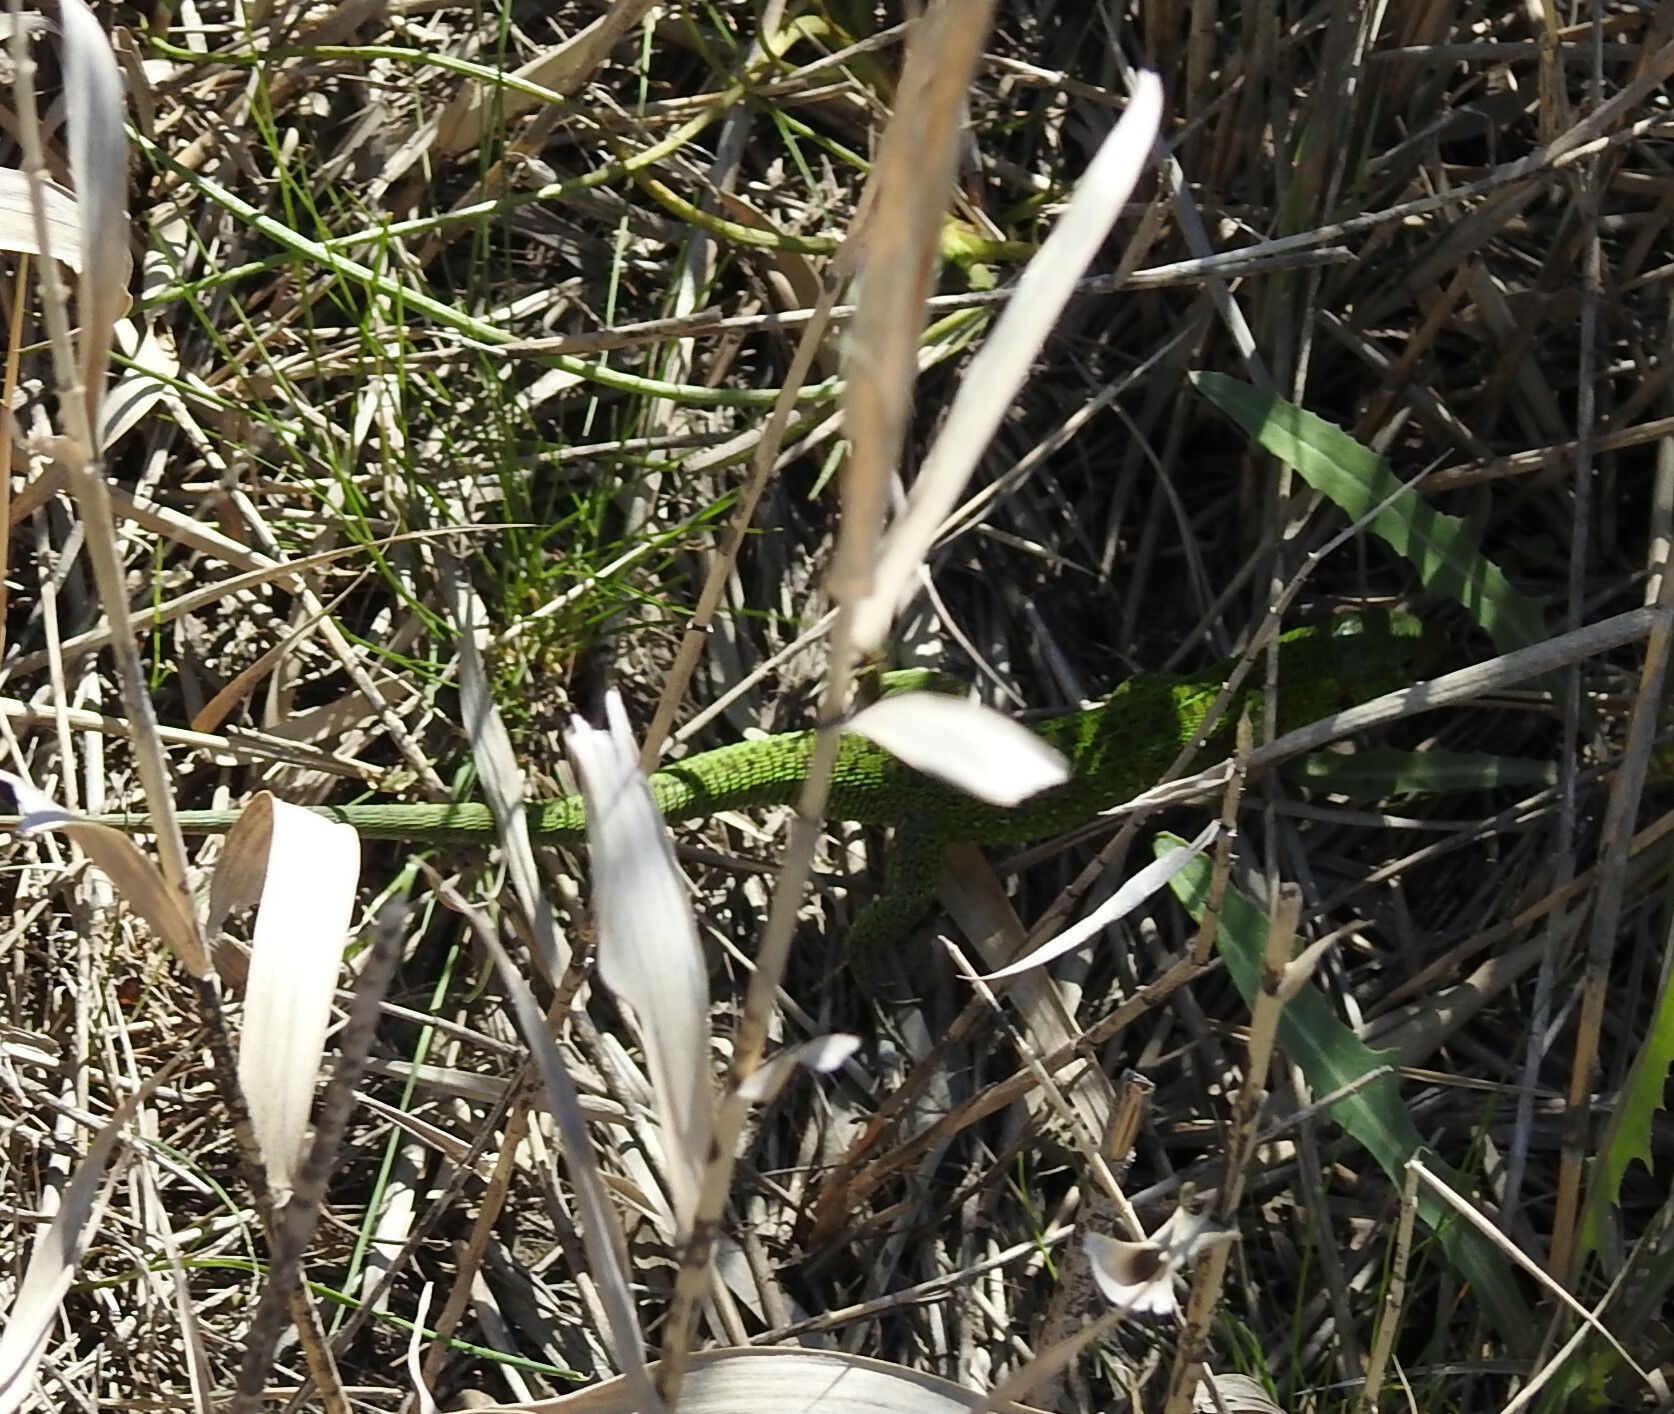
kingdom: Animalia
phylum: Chordata
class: Squamata
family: Lacertidae
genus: Lacerta
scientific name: Lacerta agilis
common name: Sand lizard
